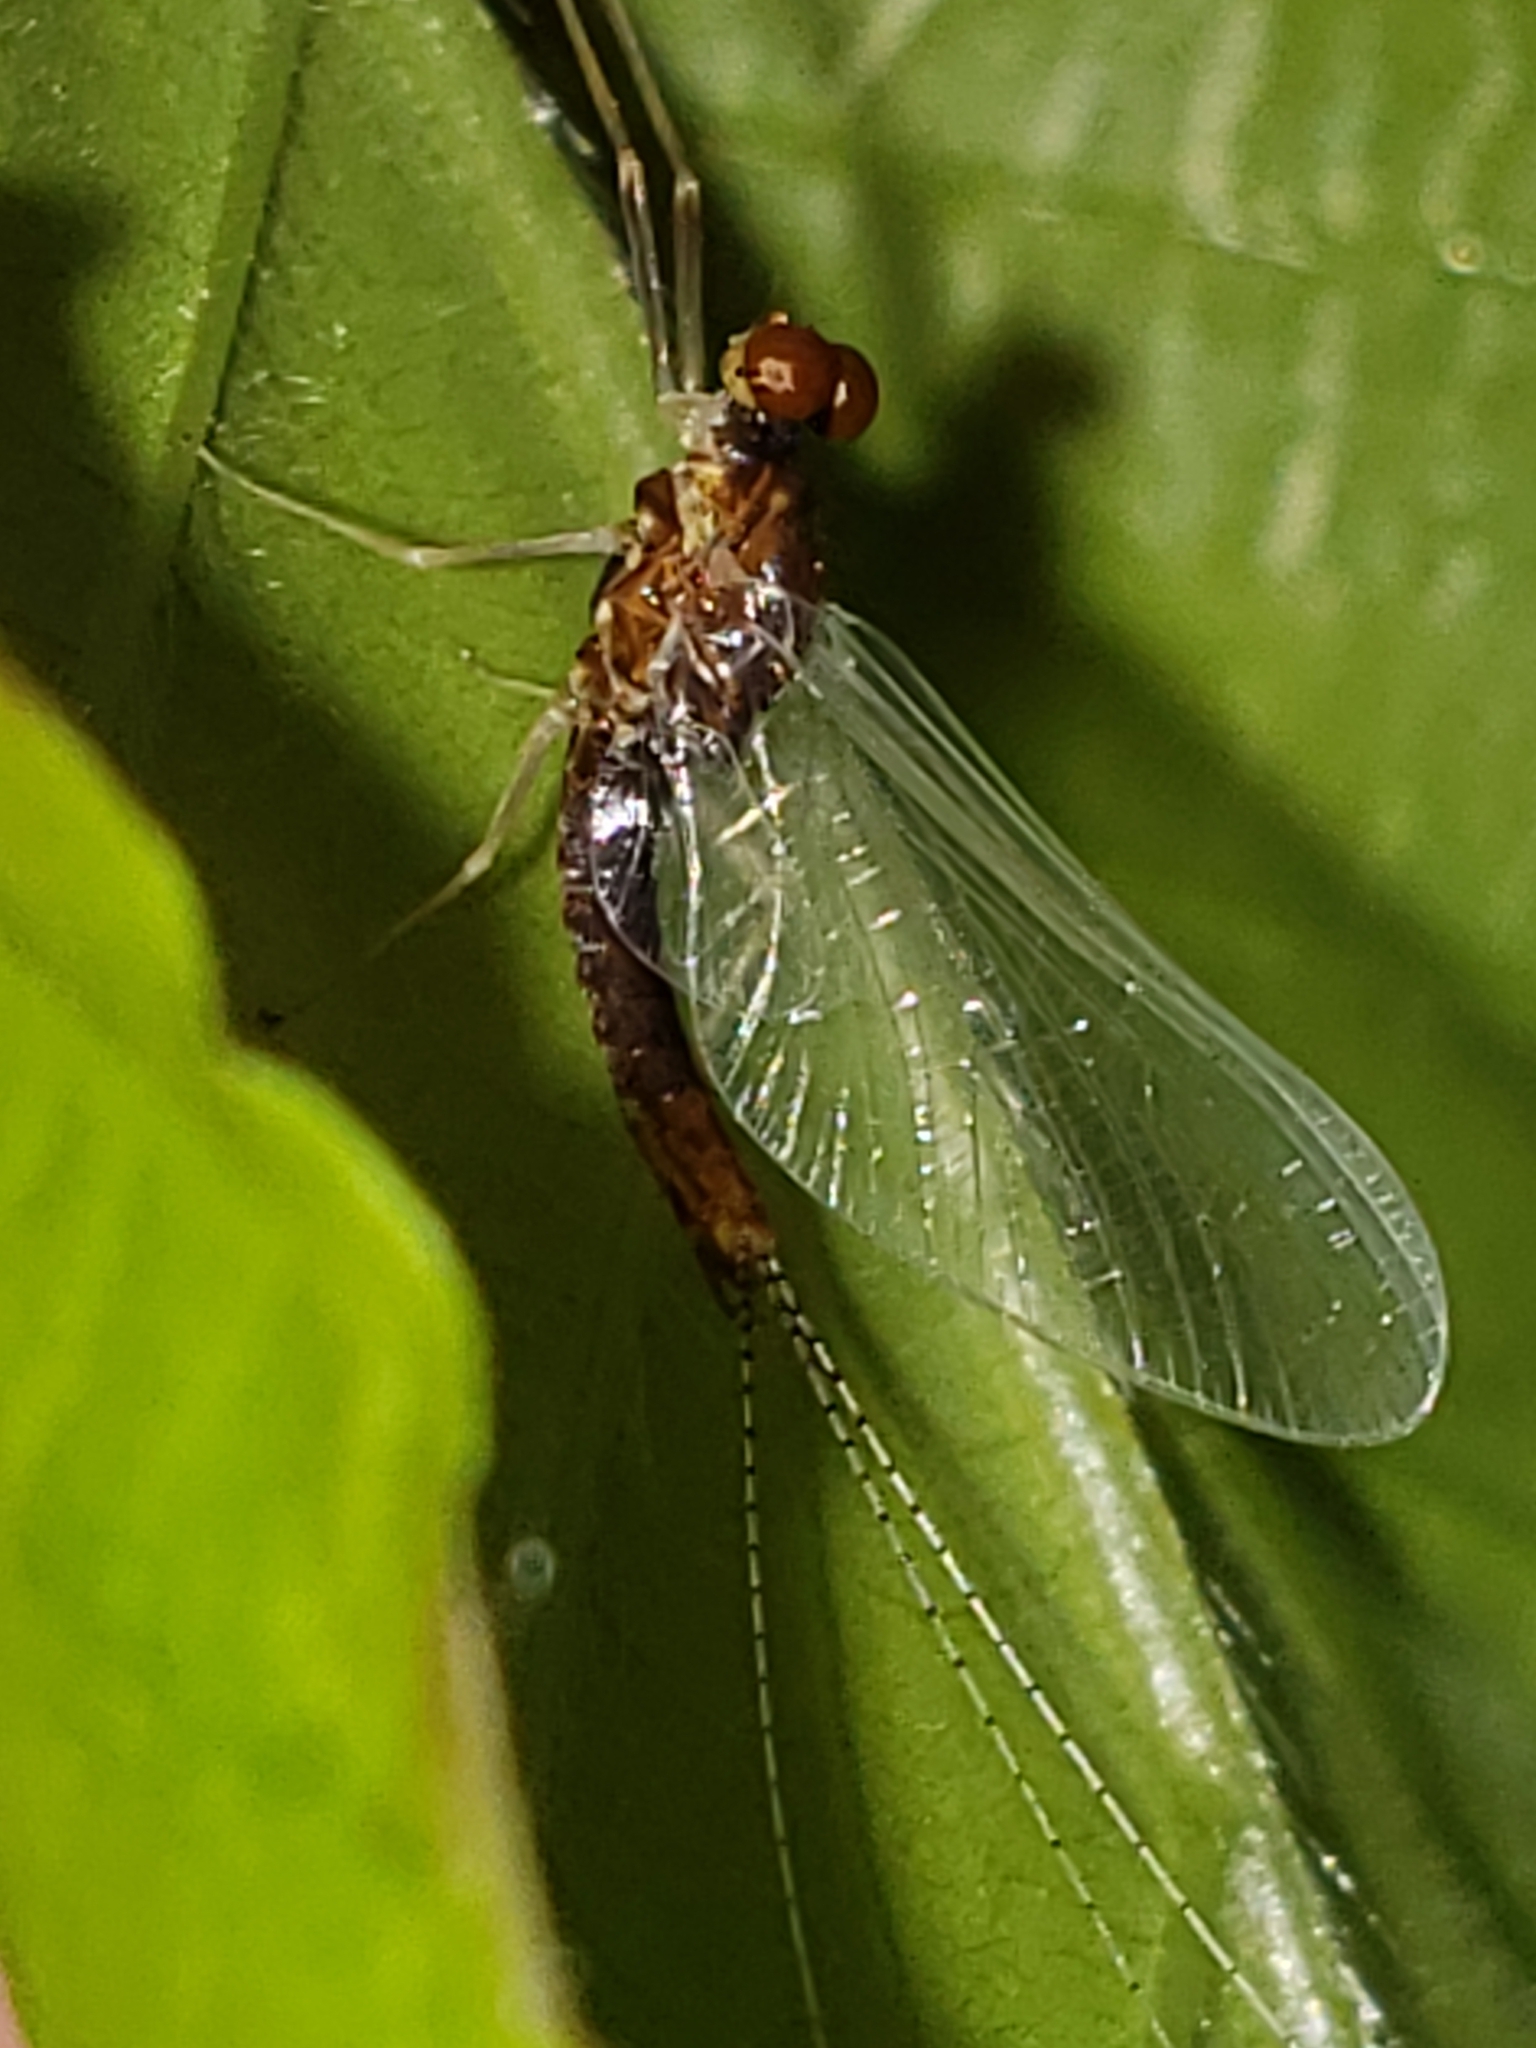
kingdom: Animalia
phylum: Arthropoda
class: Insecta
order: Ephemeroptera
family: Ephemerellidae
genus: Ephemerella
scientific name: Ephemerella needhami
